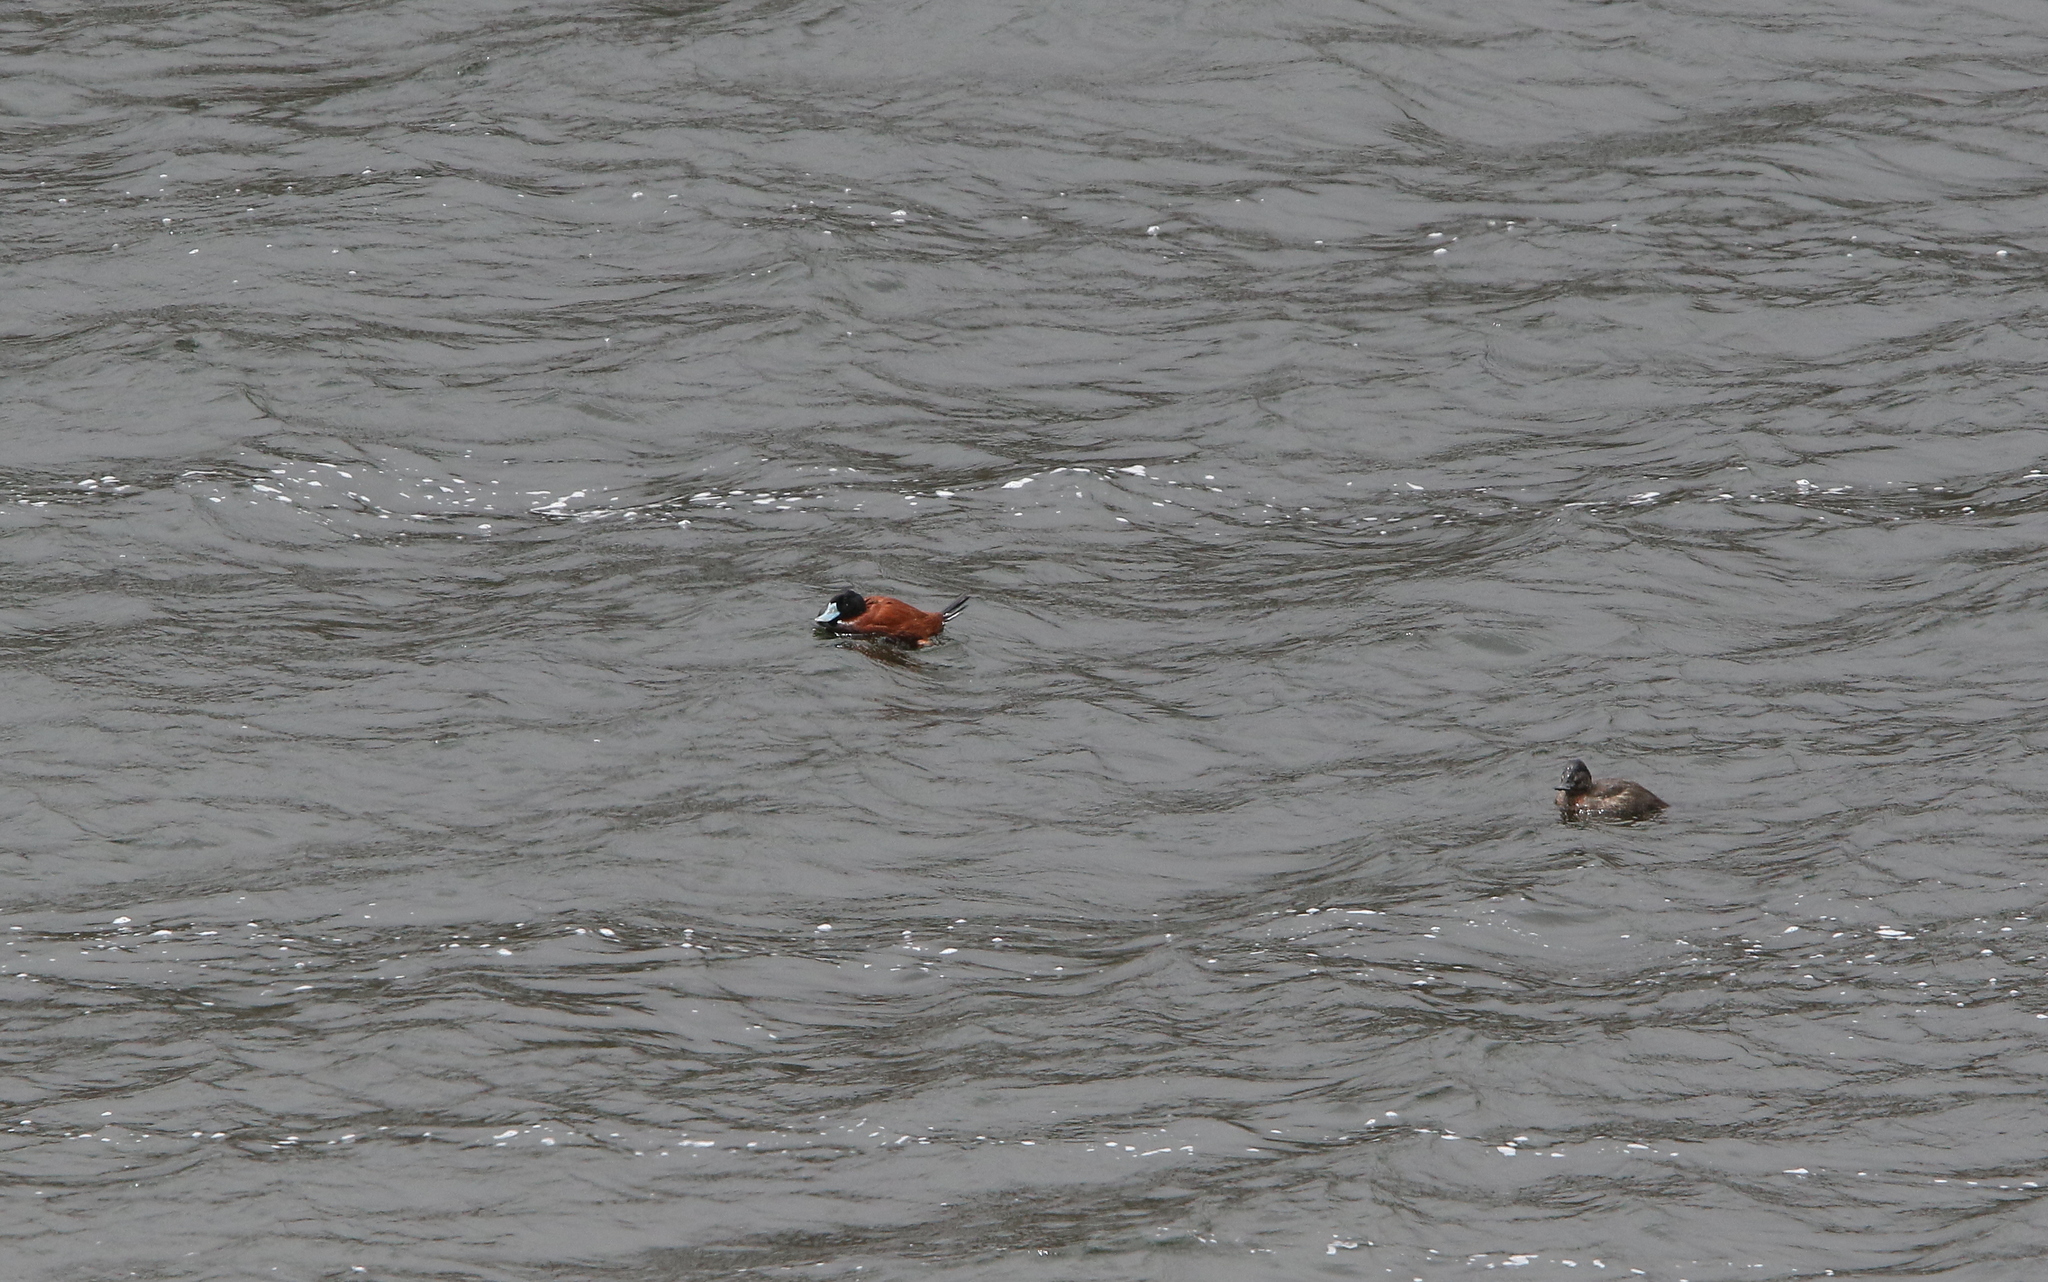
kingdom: Animalia
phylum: Chordata
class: Aves
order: Anseriformes
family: Anatidae
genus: Oxyura
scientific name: Oxyura ferruginea
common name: Andean duck
